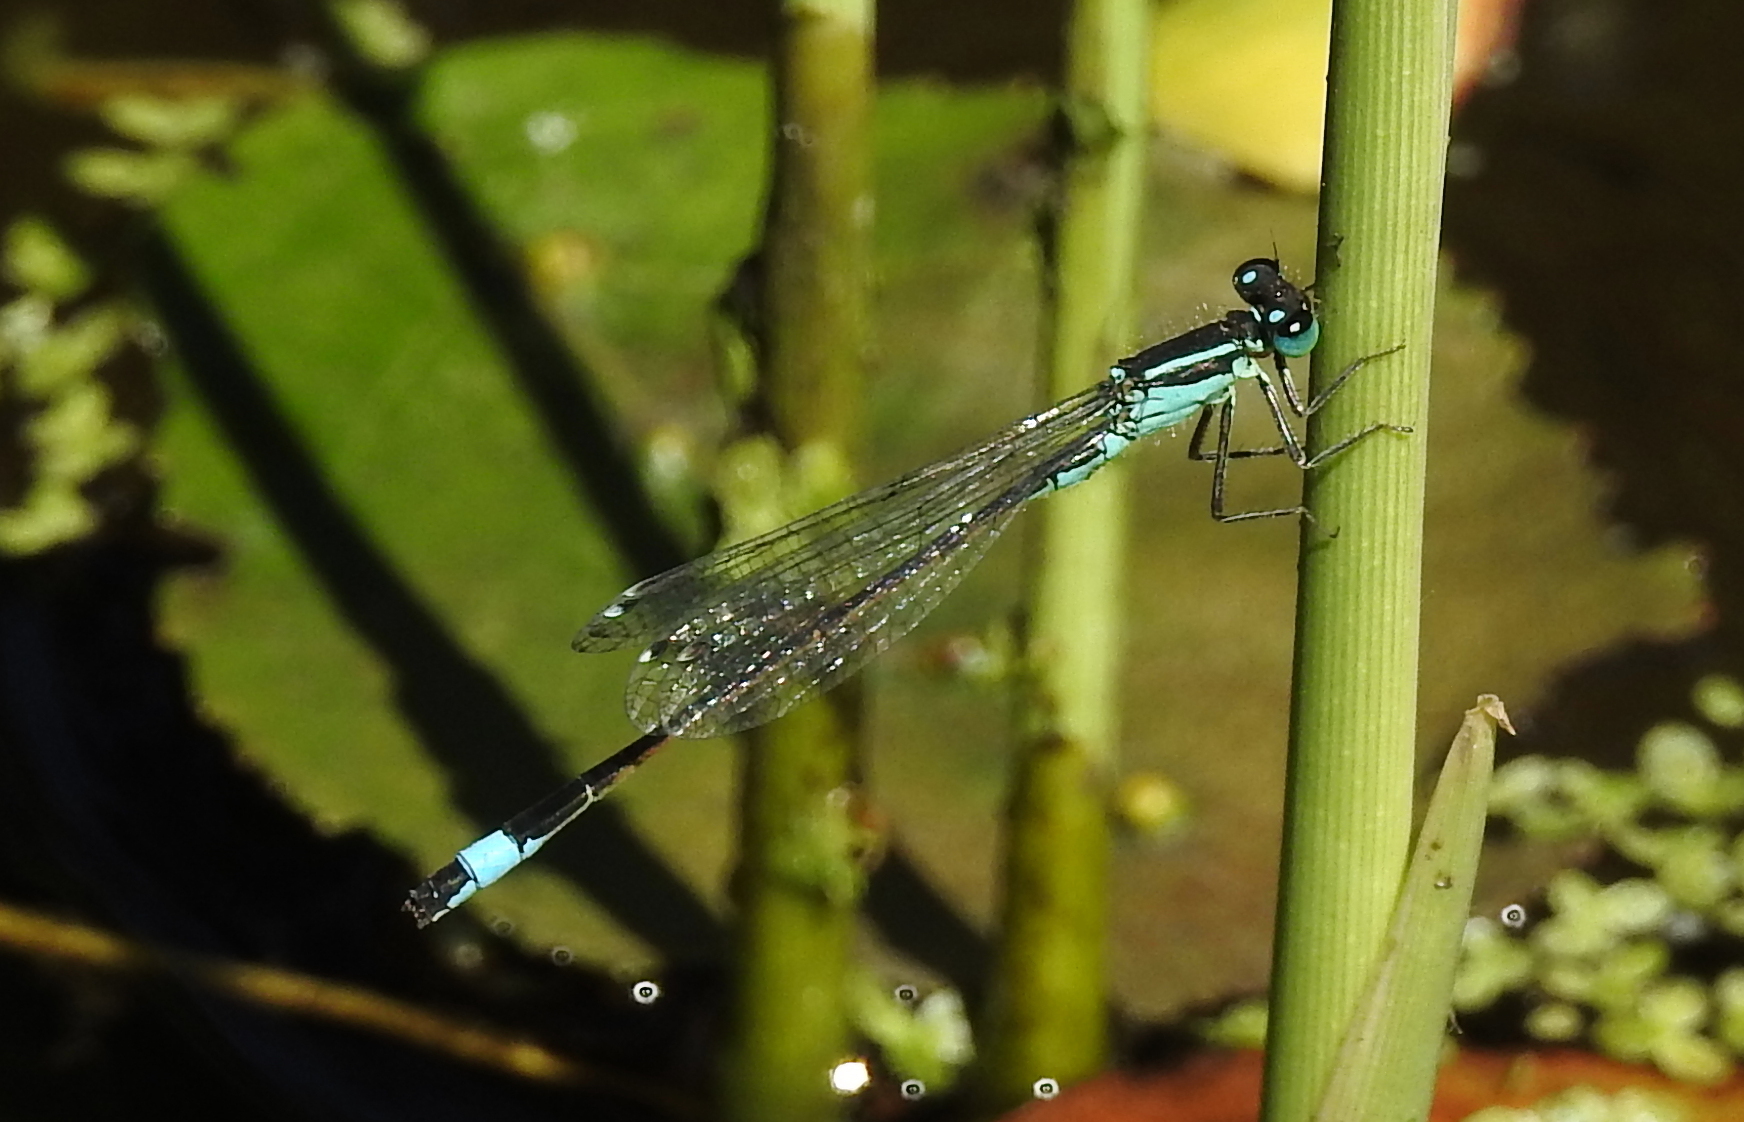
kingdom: Animalia
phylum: Arthropoda
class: Insecta
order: Odonata
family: Coenagrionidae
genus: Ischnura
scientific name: Ischnura elegans
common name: Blue-tailed damselfly
